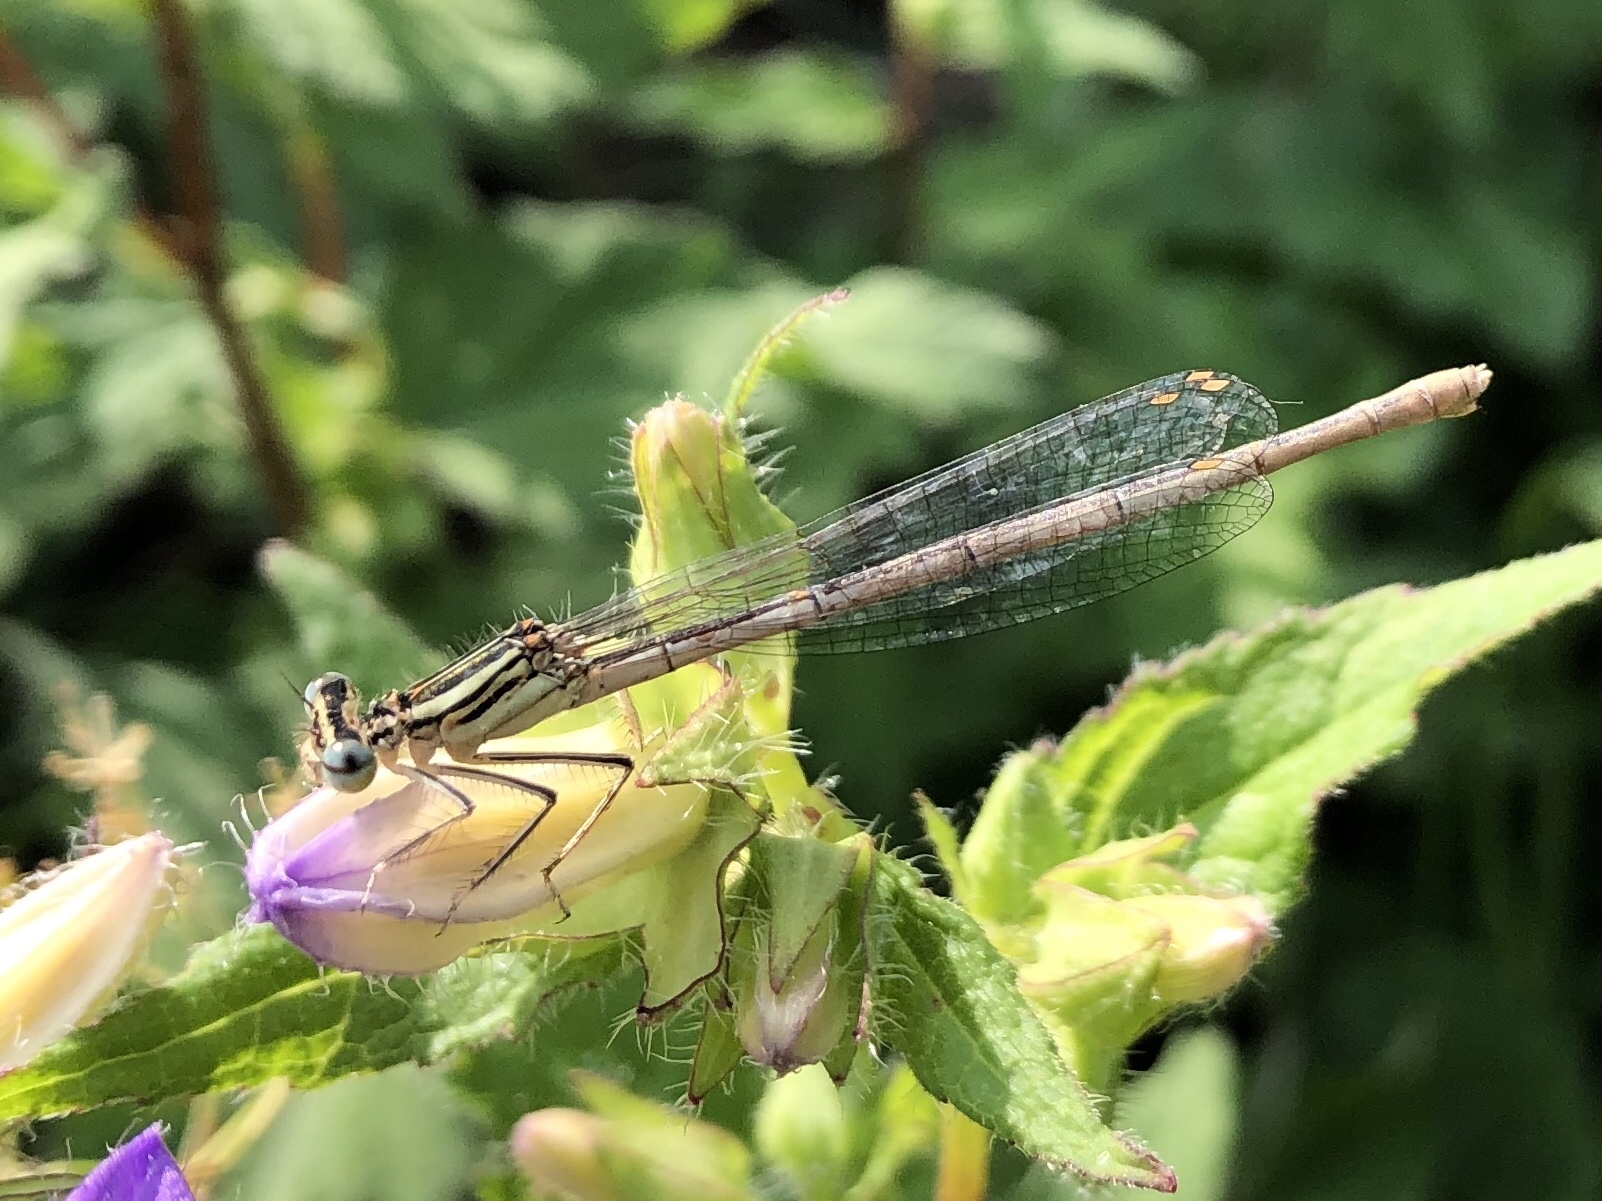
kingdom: Animalia
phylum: Arthropoda
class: Insecta
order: Odonata
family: Platycnemididae
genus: Platycnemis
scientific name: Platycnemis pennipes
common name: White-legged damselfly
